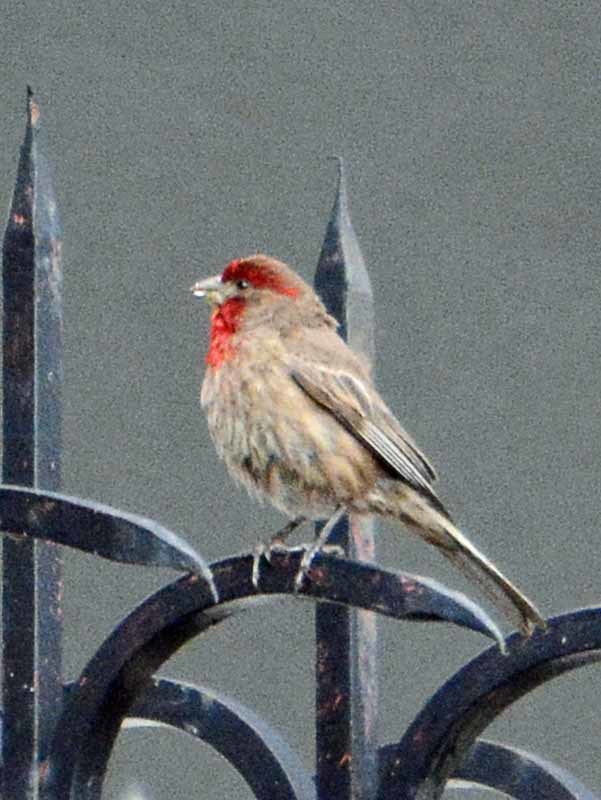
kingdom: Animalia
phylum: Chordata
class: Aves
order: Passeriformes
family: Fringillidae
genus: Haemorhous
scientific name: Haemorhous mexicanus
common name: House finch
